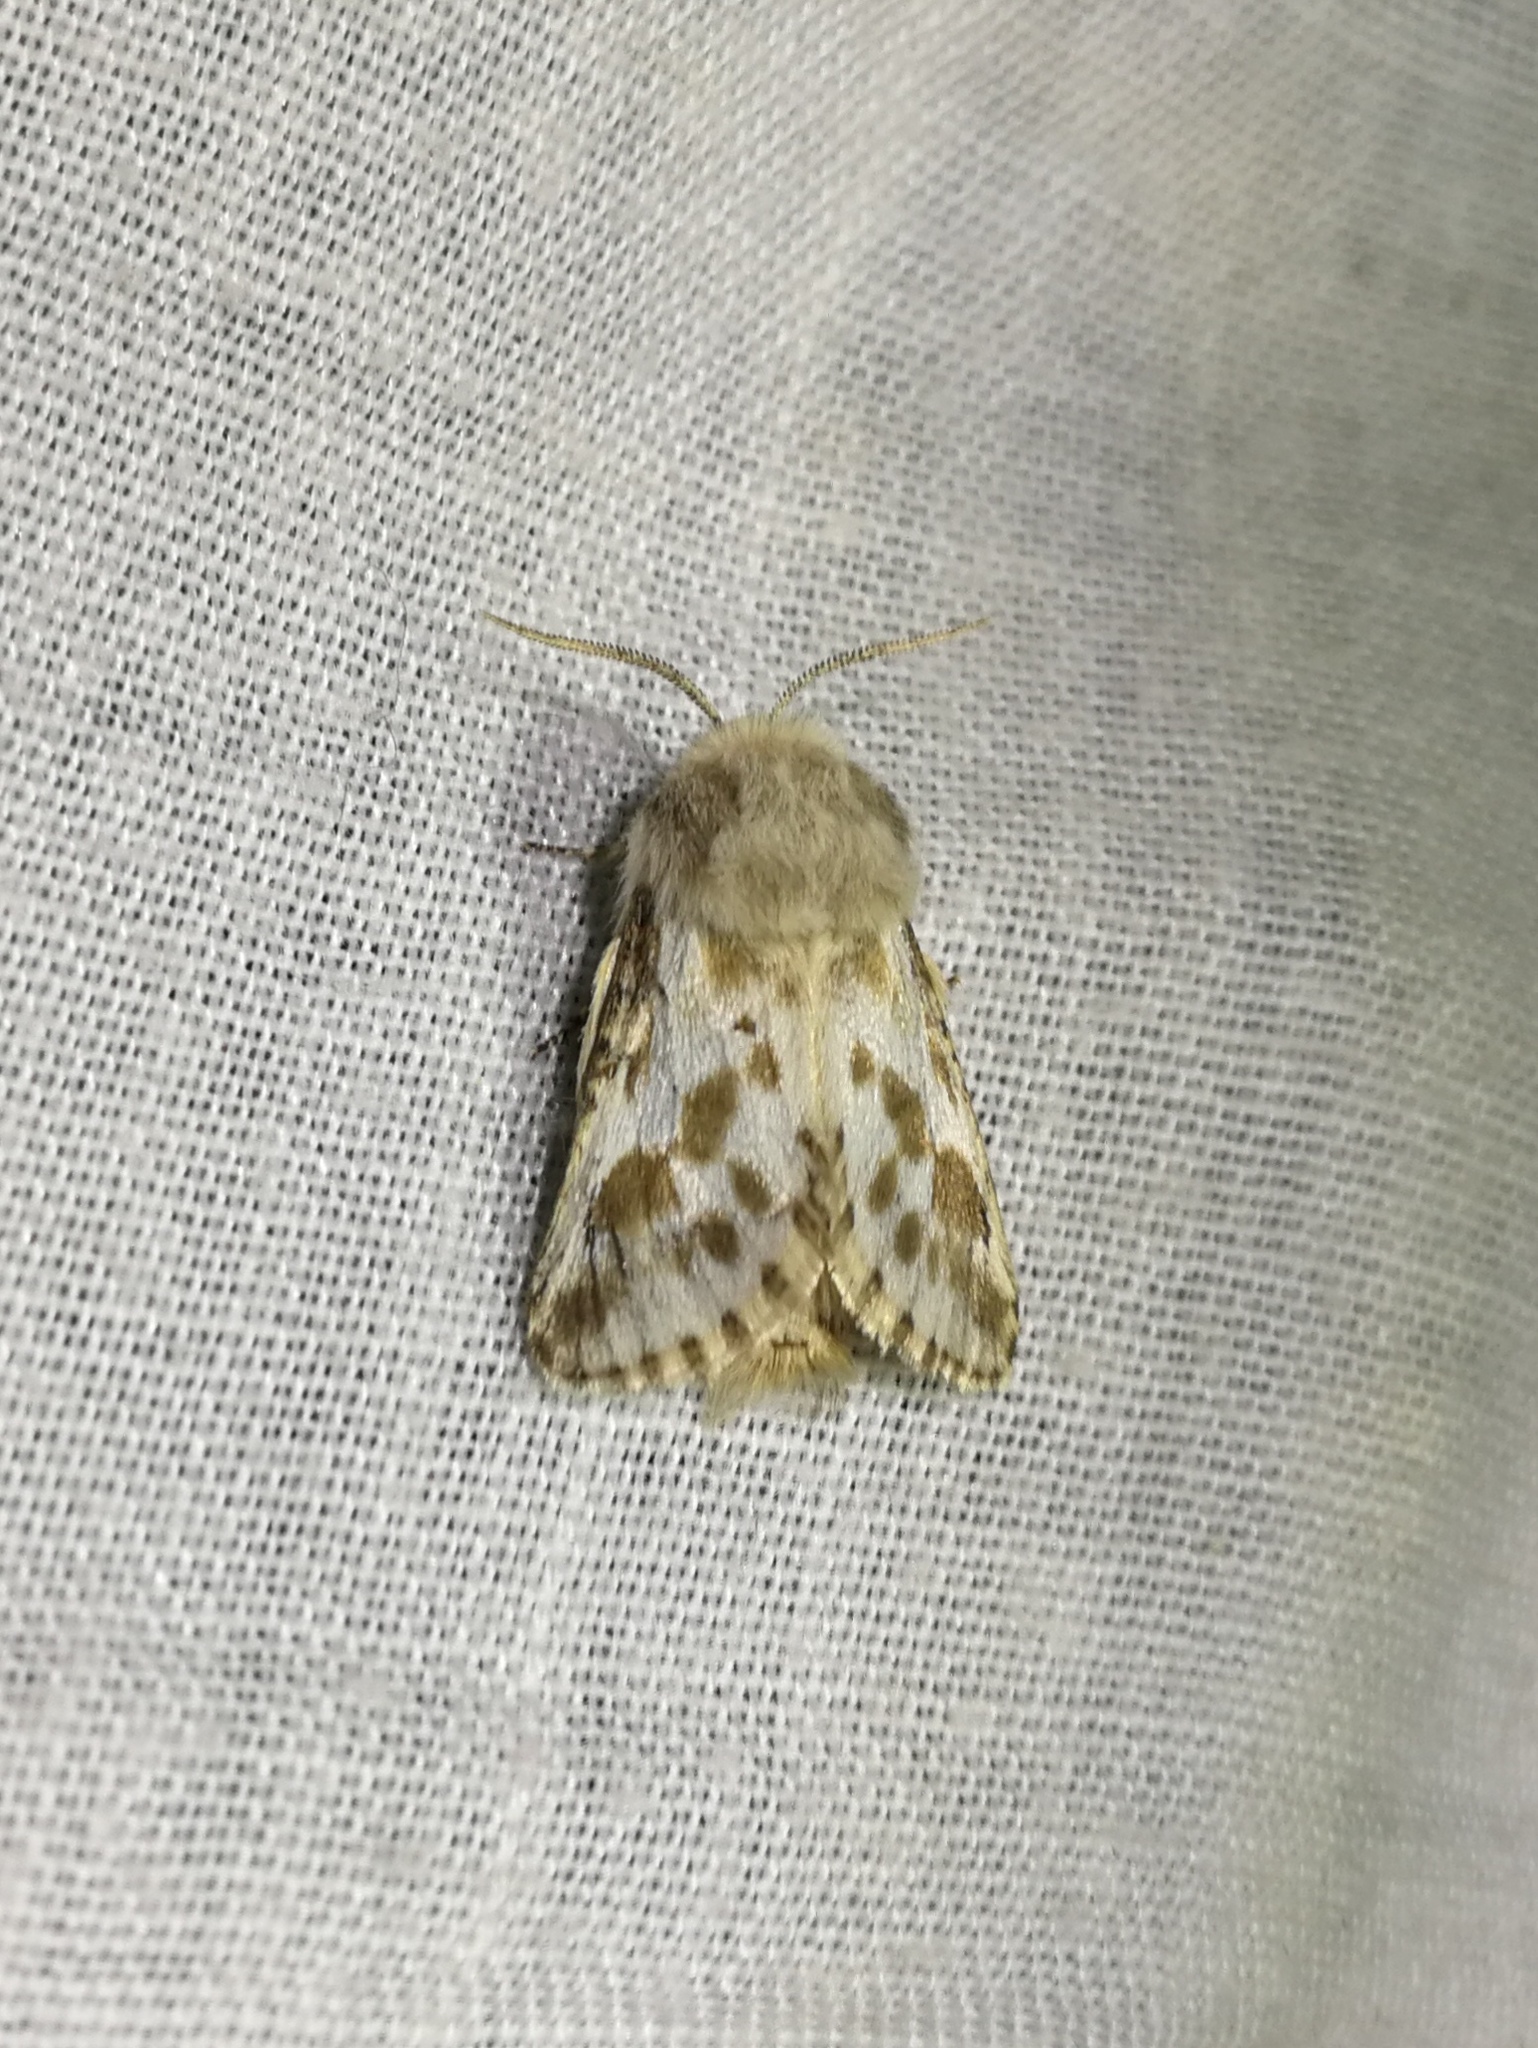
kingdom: Animalia
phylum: Arthropoda
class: Insecta
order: Lepidoptera
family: Cossidae
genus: Dyspessa
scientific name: Dyspessa ulula
